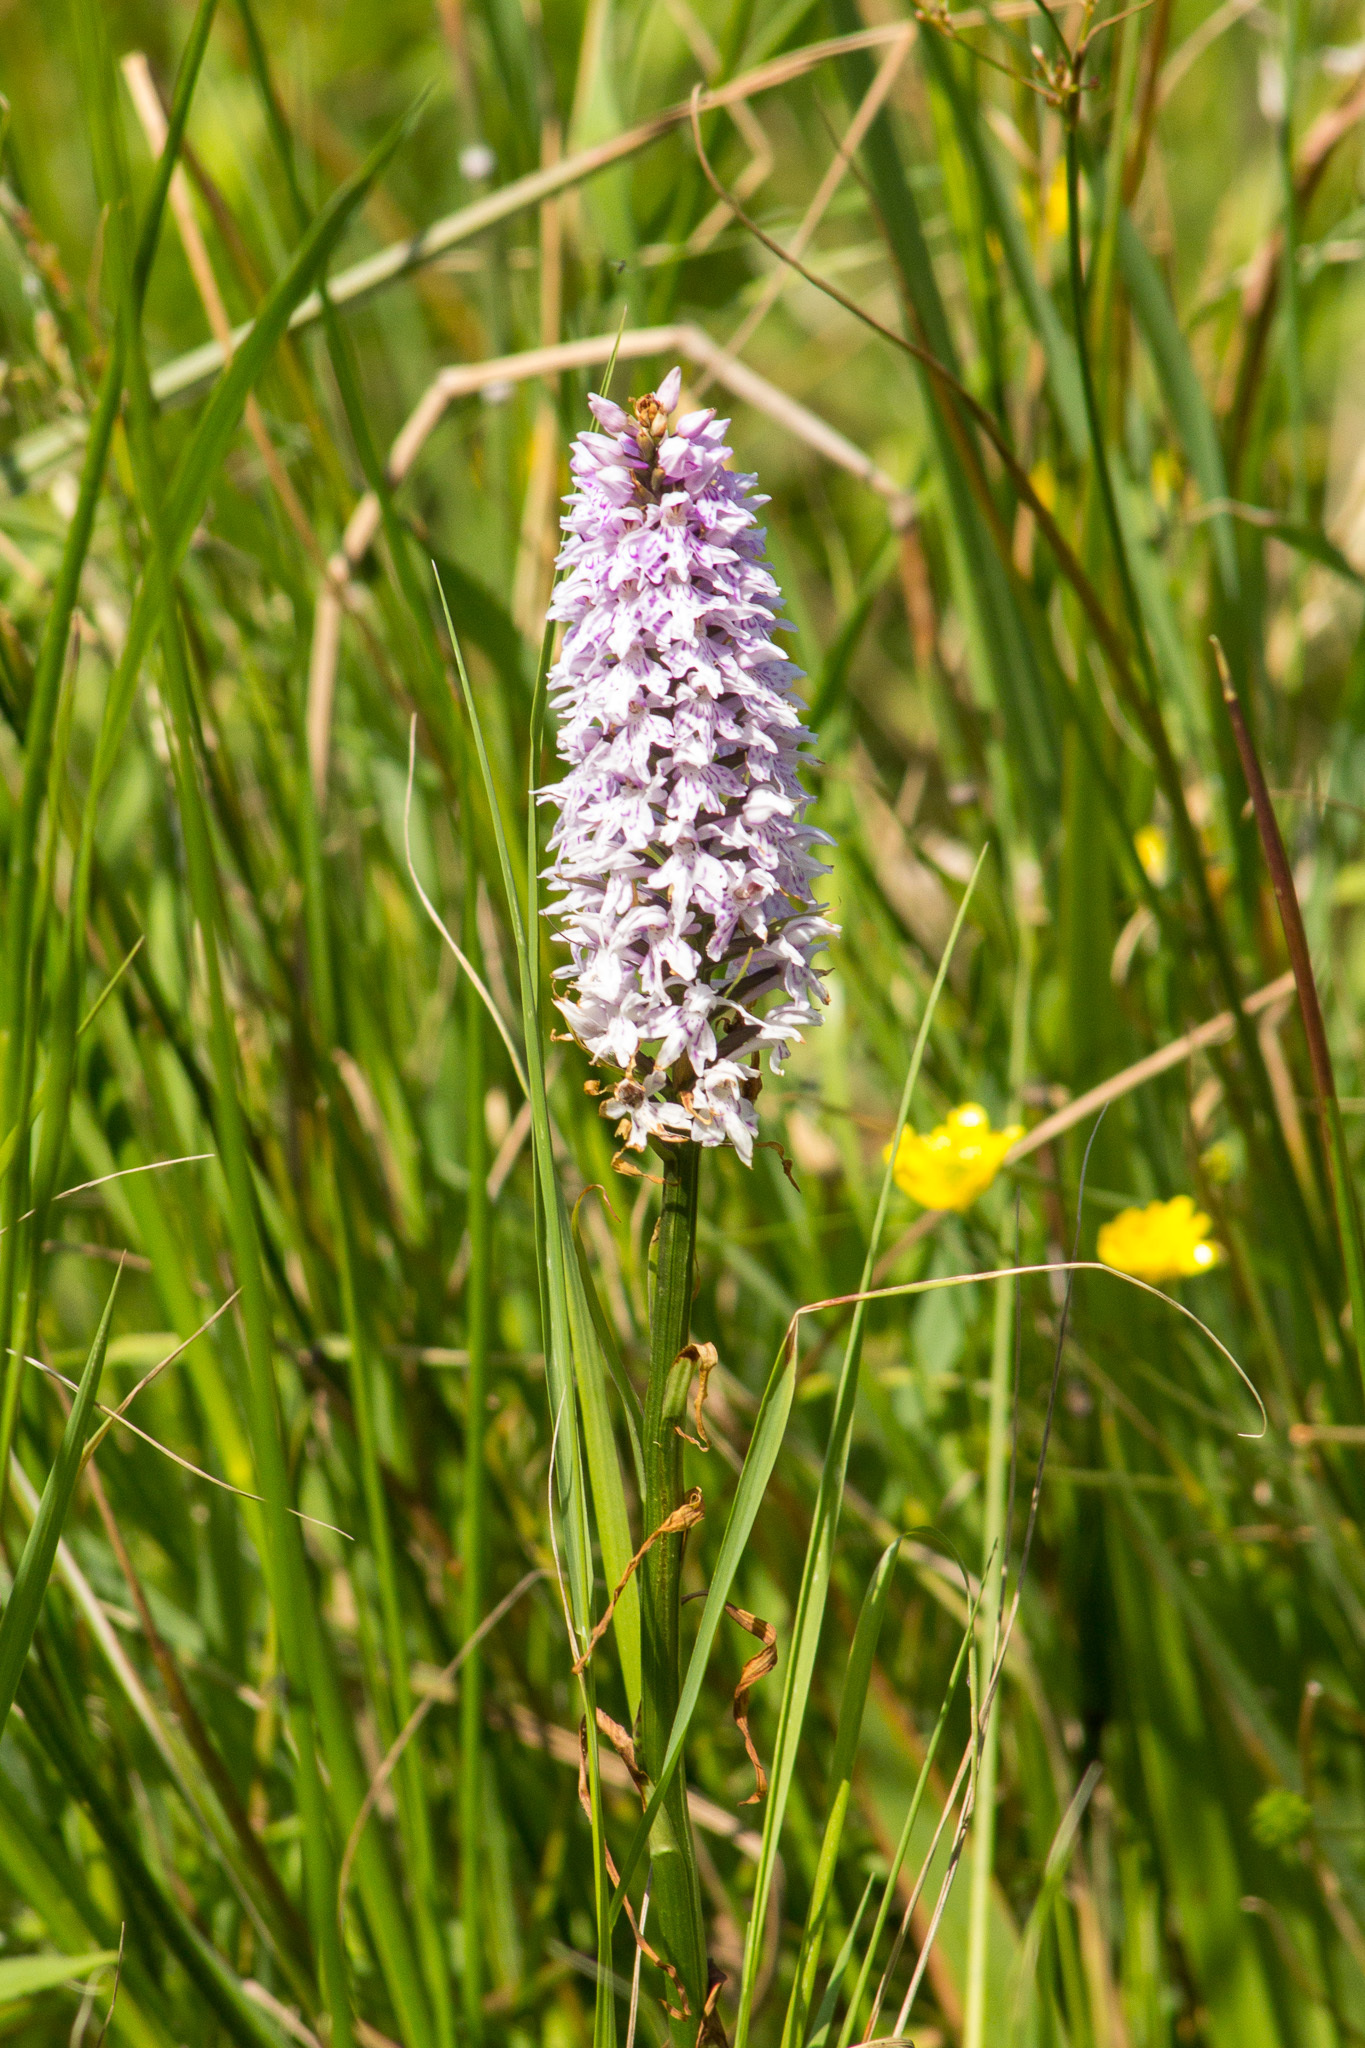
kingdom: Plantae
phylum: Tracheophyta
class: Liliopsida
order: Asparagales
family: Orchidaceae
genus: Dactylorhiza
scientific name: Dactylorhiza maculata
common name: Heath spotted-orchid
